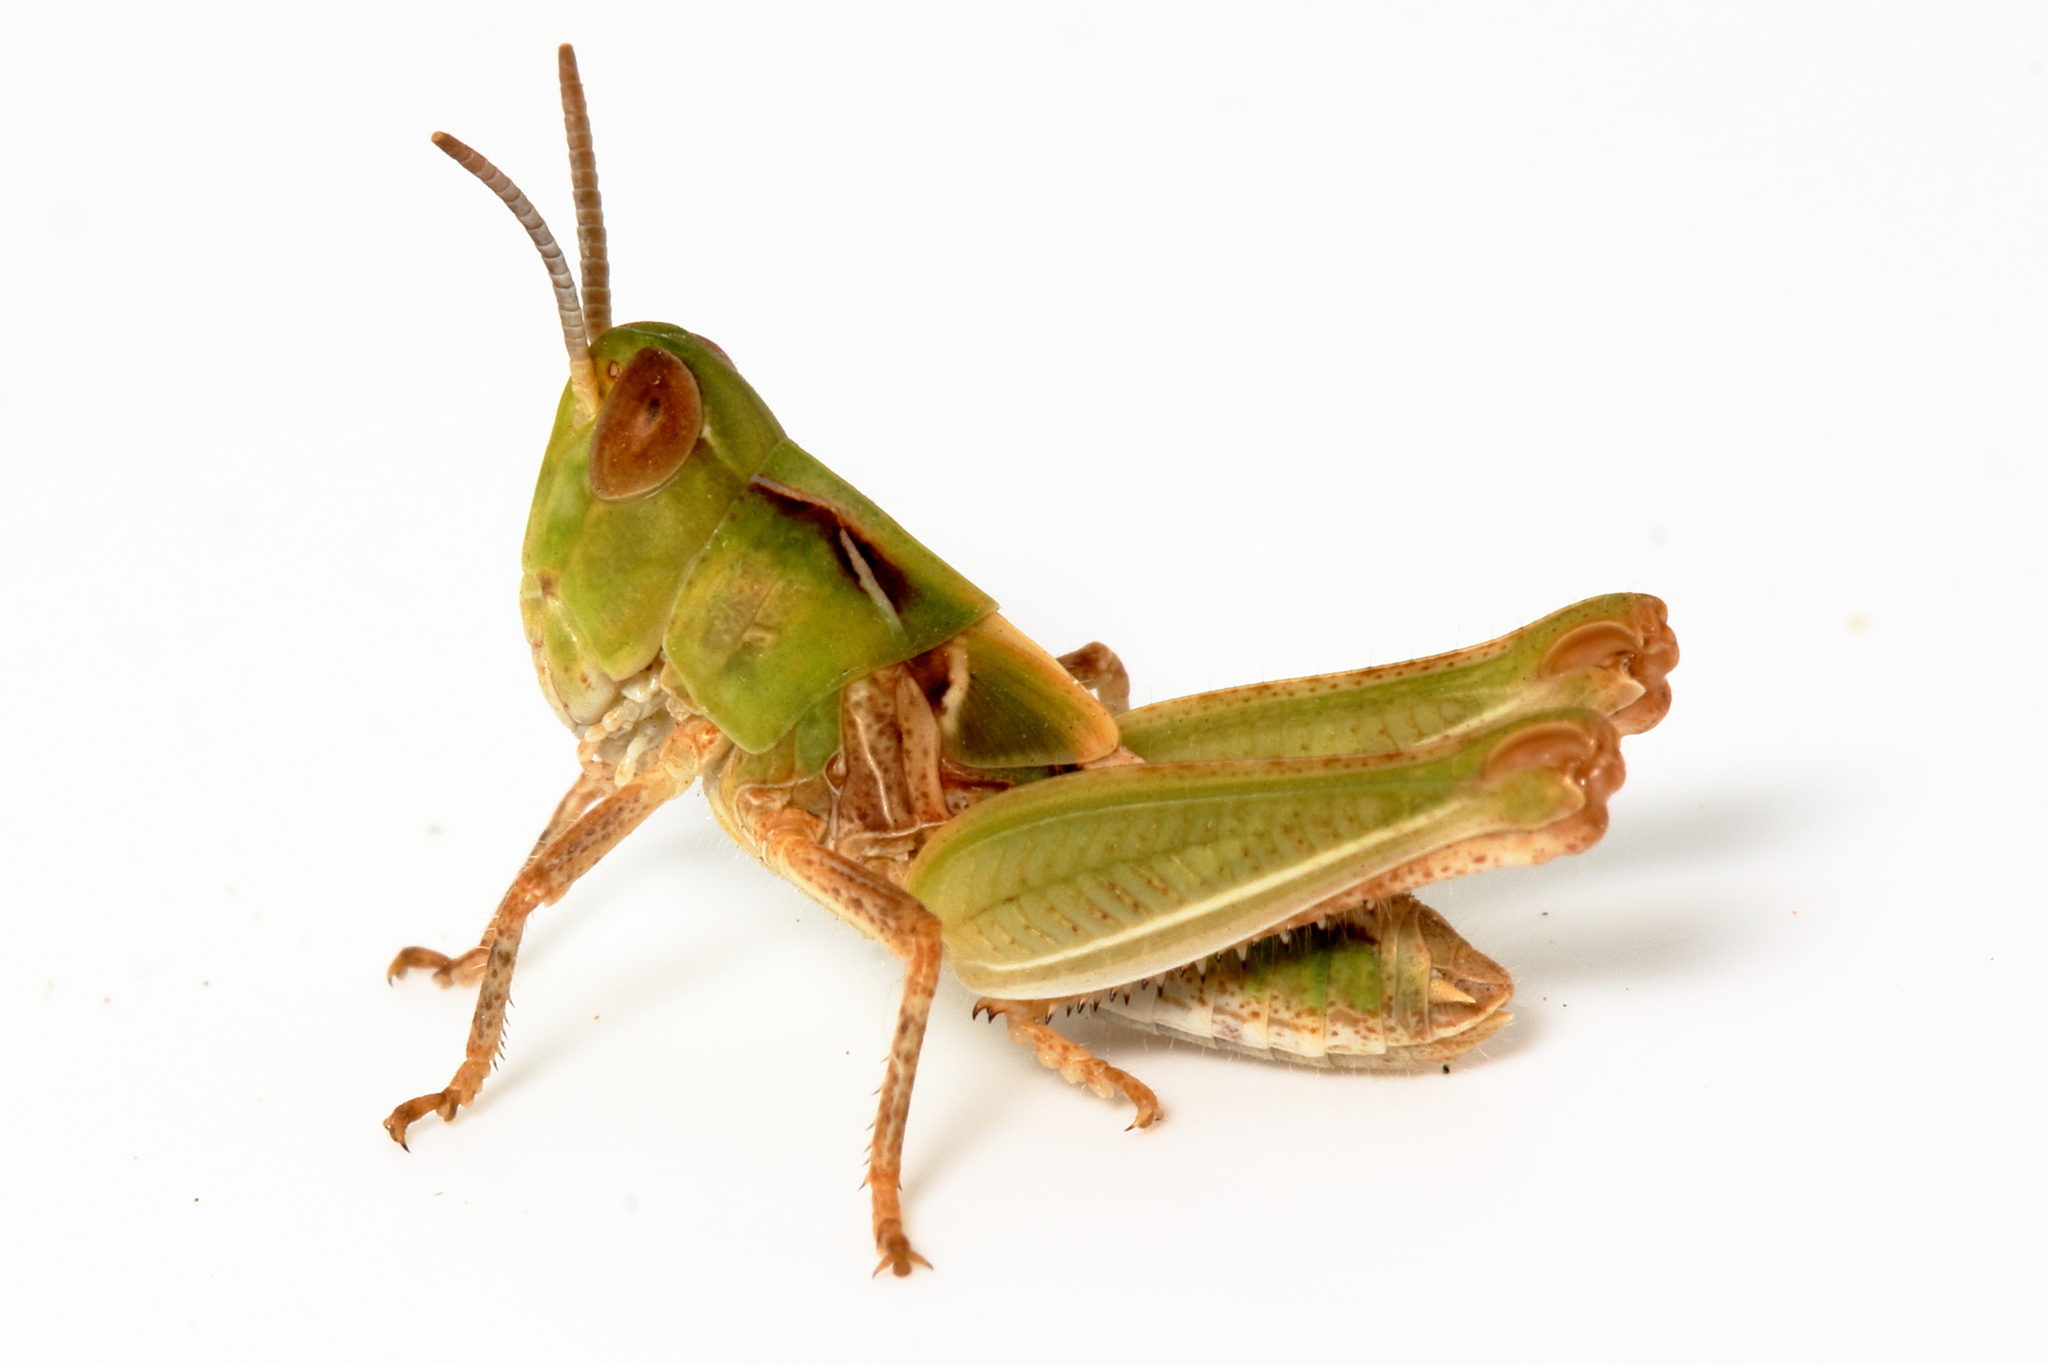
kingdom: Animalia
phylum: Arthropoda
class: Insecta
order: Orthoptera
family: Acrididae
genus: Chortoicetes
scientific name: Chortoicetes terminifera
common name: Australian plague locust
